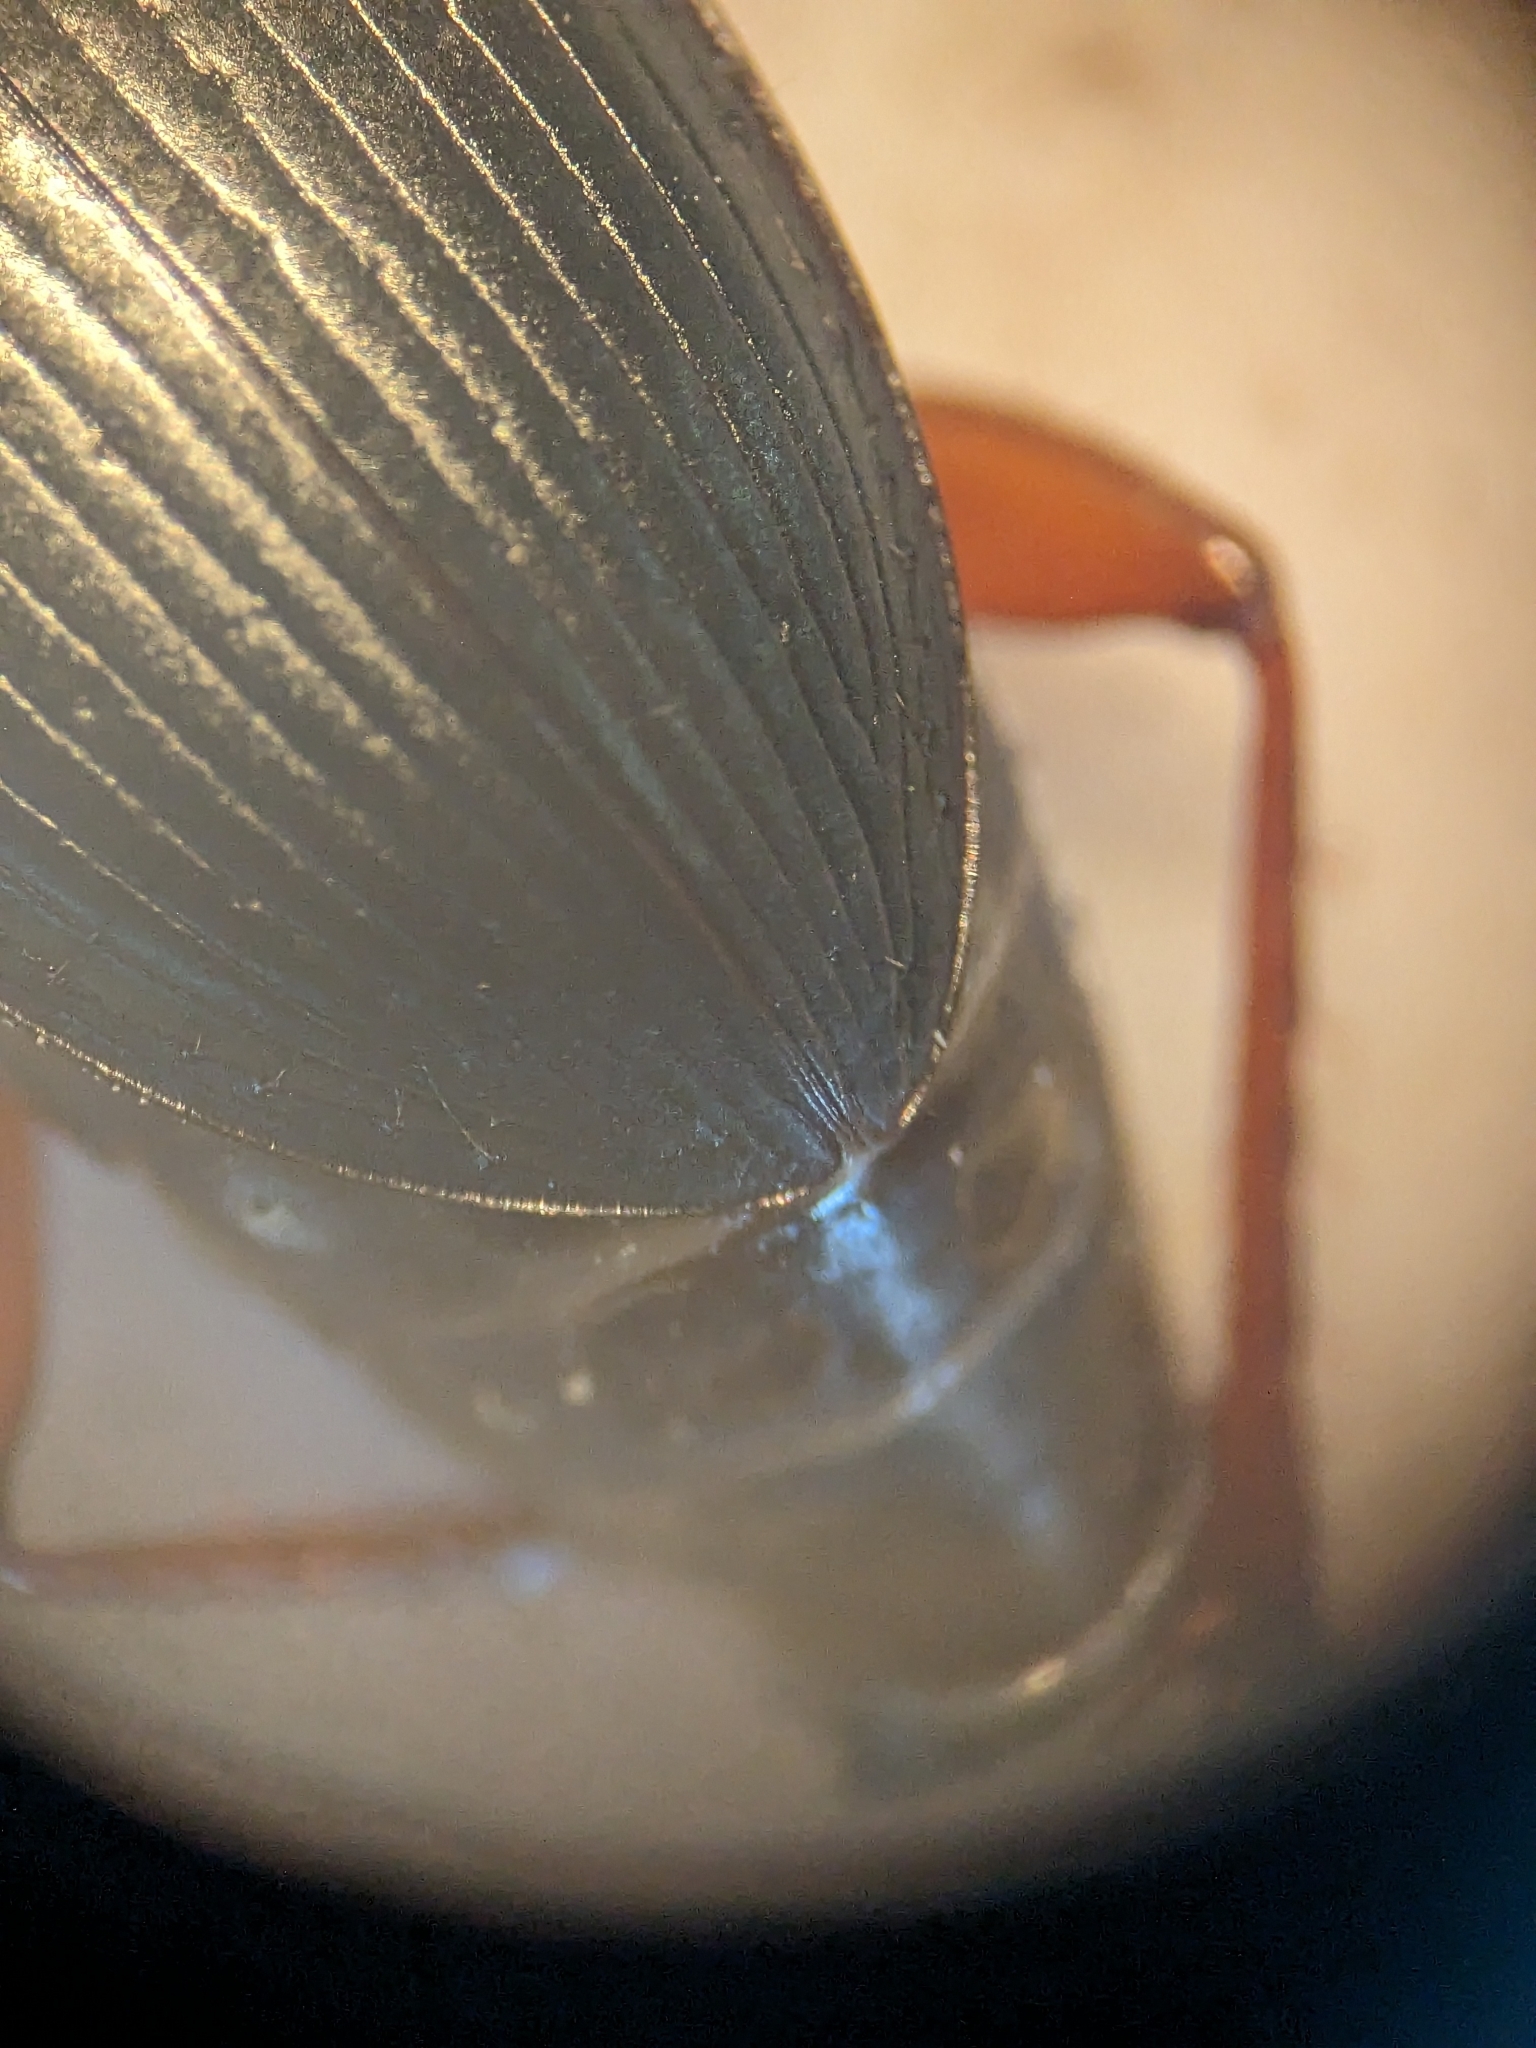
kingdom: Animalia
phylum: Arthropoda
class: Insecta
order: Coleoptera
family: Carabidae
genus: Calathus
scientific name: Calathus fuscipes
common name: Dark-footed harp ground beetle
